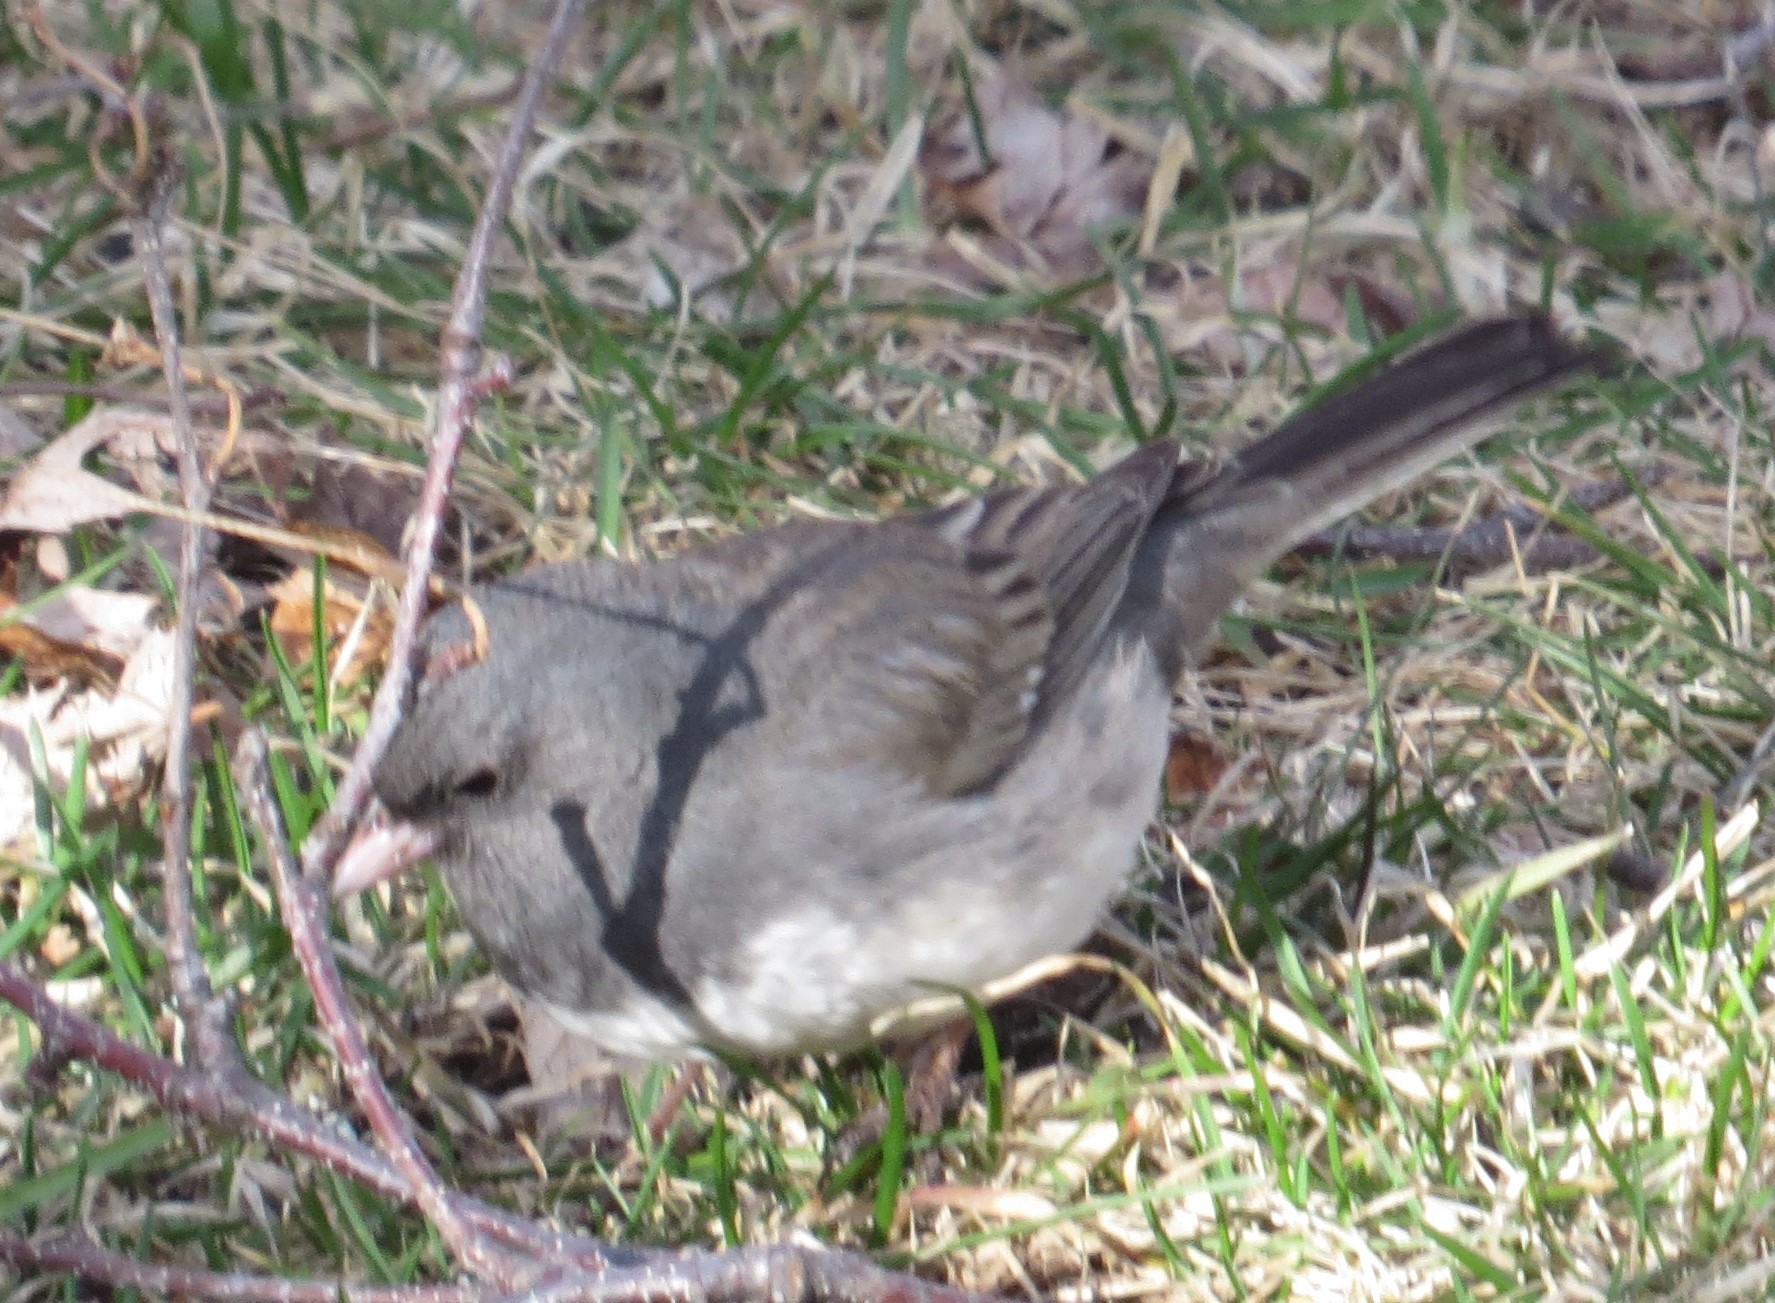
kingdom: Animalia
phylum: Chordata
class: Aves
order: Passeriformes
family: Passerellidae
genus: Junco
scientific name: Junco hyemalis
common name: Dark-eyed junco
